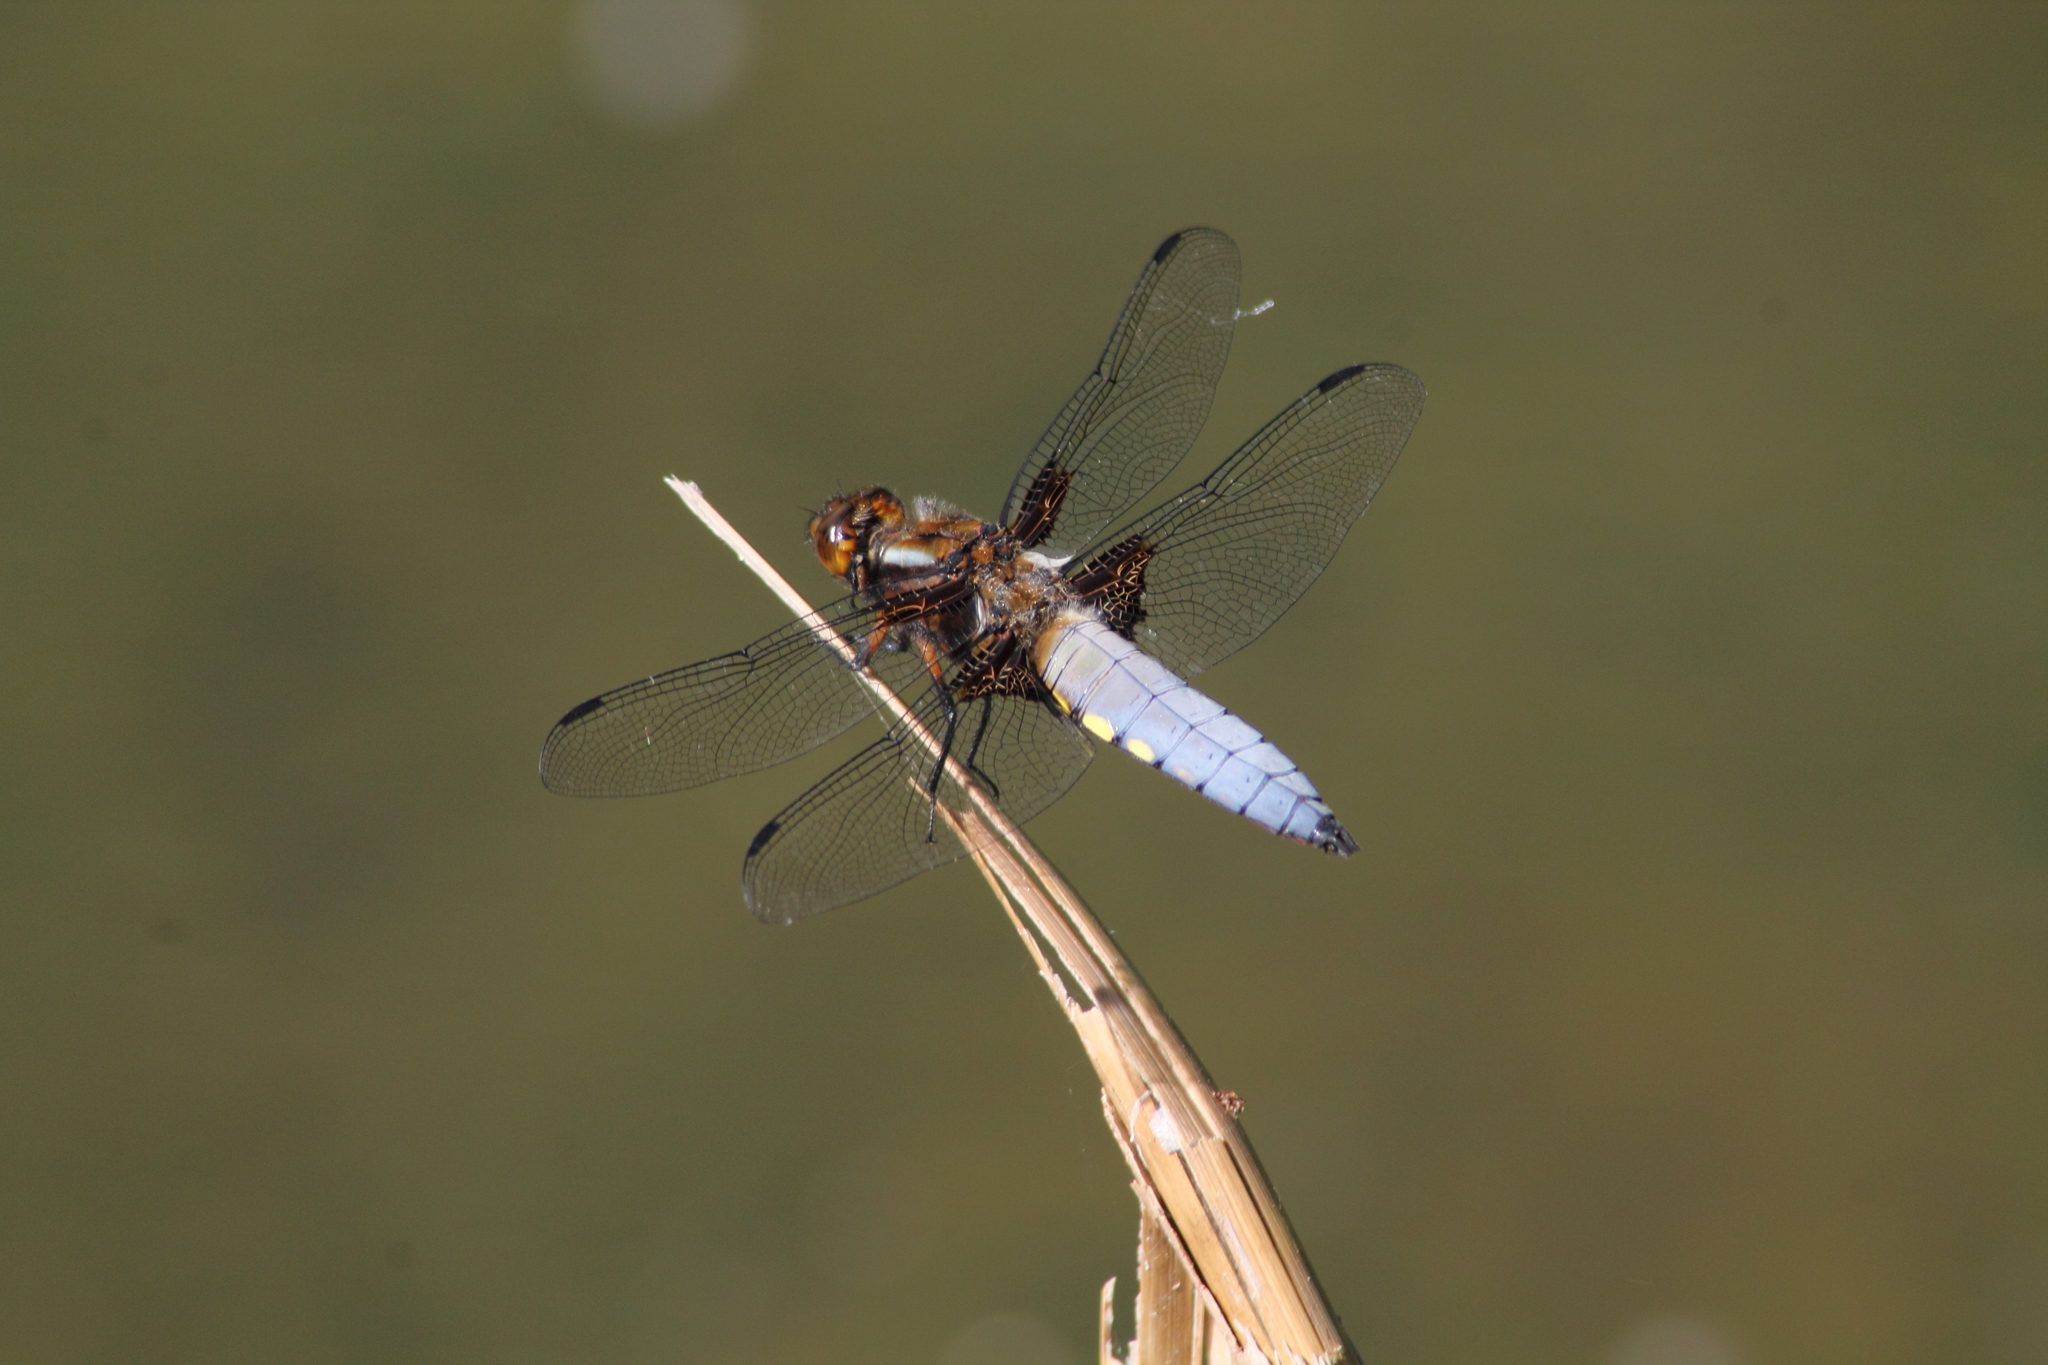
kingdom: Animalia
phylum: Arthropoda
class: Insecta
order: Odonata
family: Libellulidae
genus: Libellula
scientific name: Libellula depressa
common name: Broad-bodied chaser
